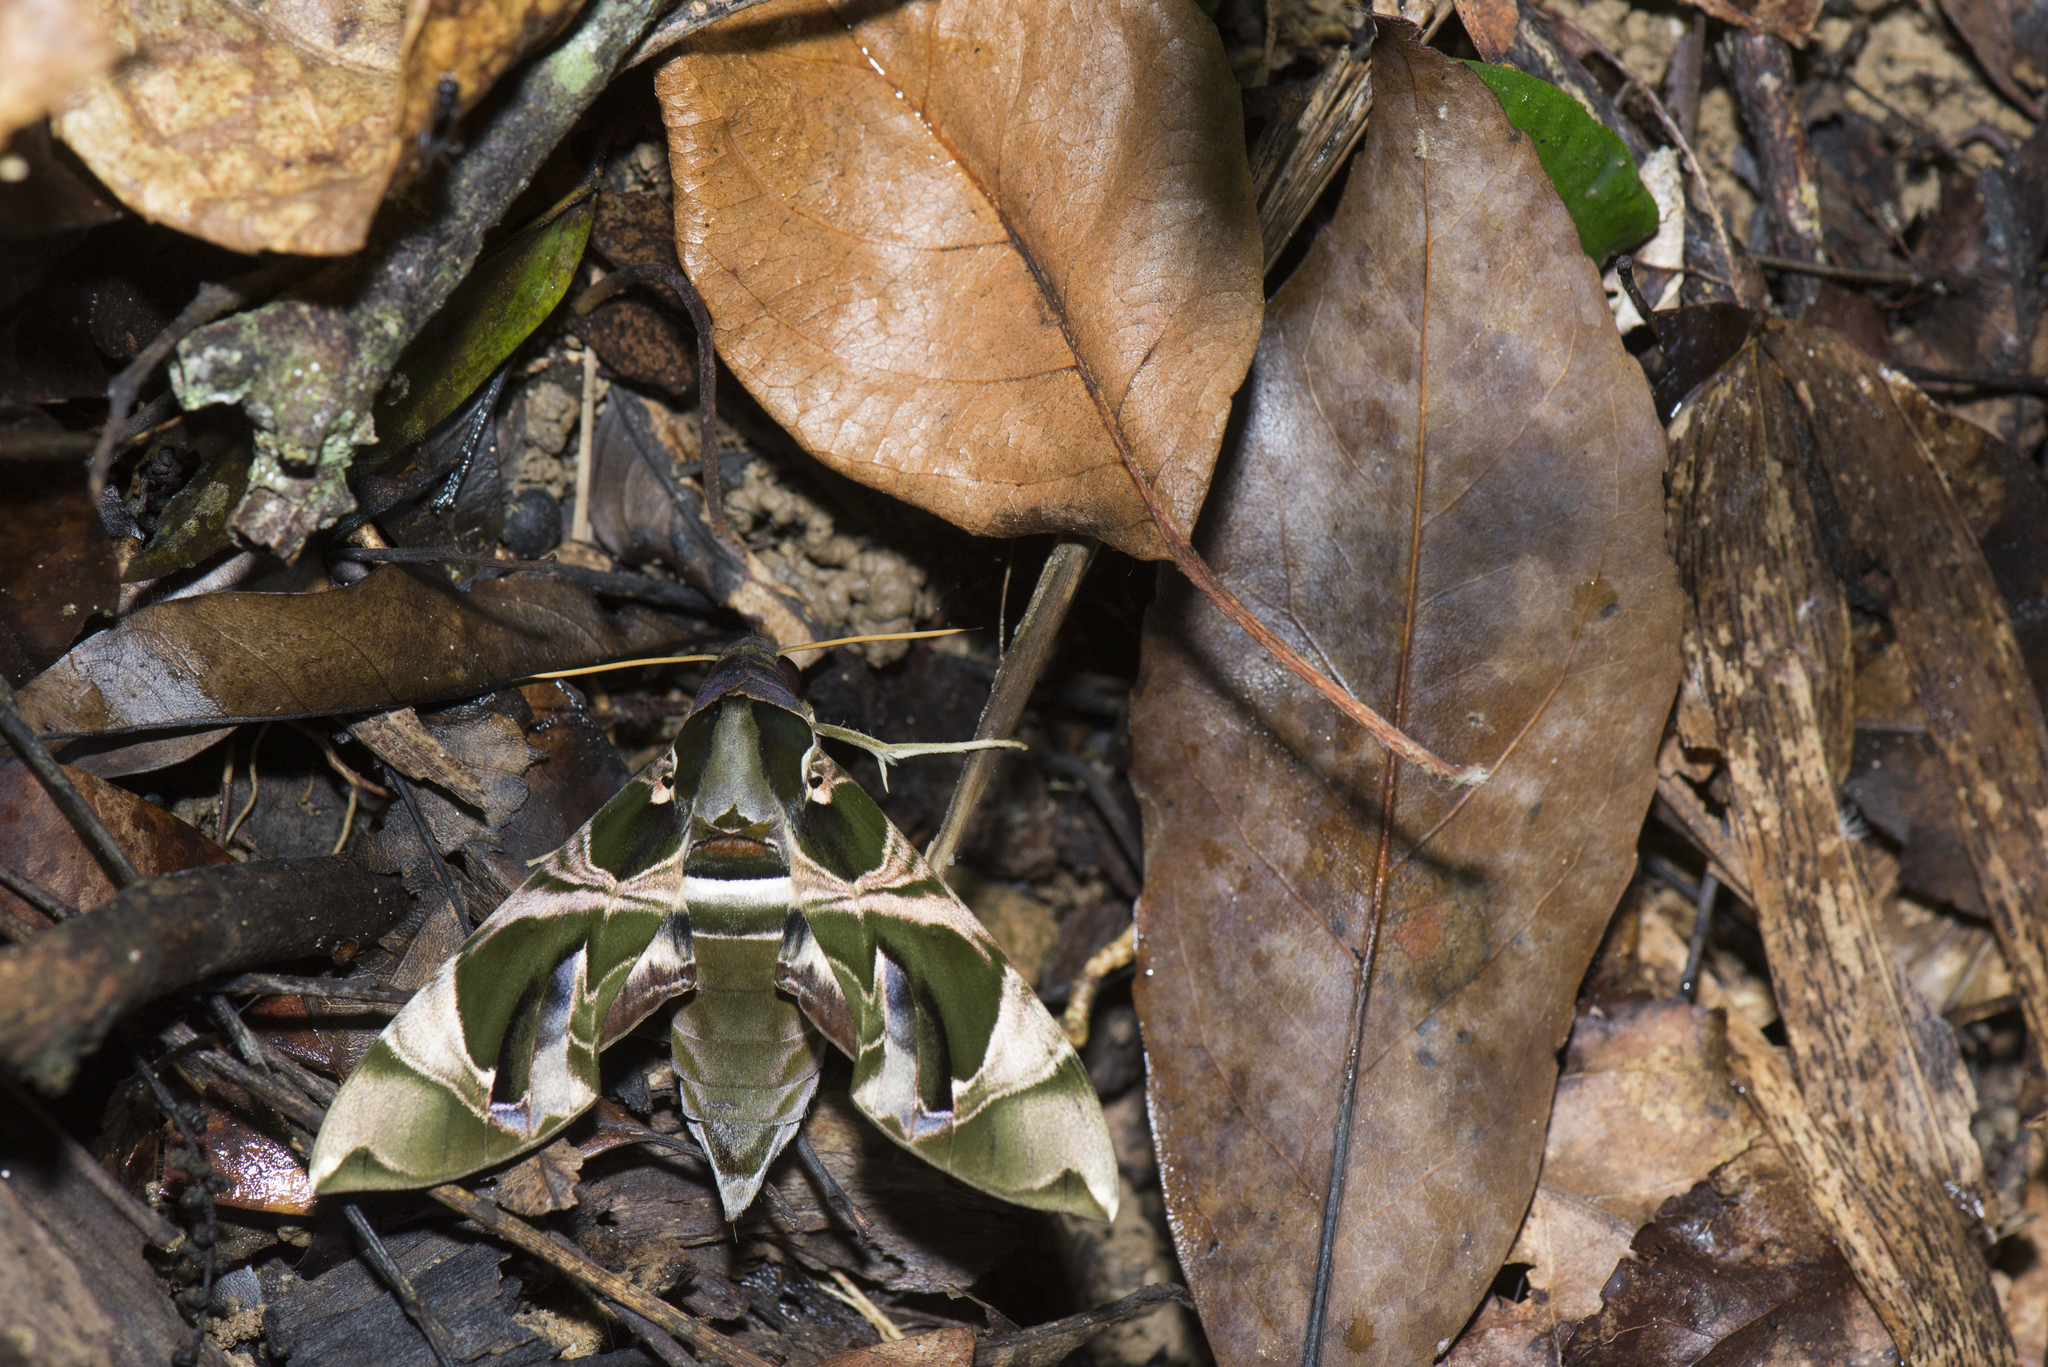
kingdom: Animalia
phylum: Arthropoda
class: Insecta
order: Lepidoptera
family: Sphingidae
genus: Daphnis
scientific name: Daphnis hypothous
